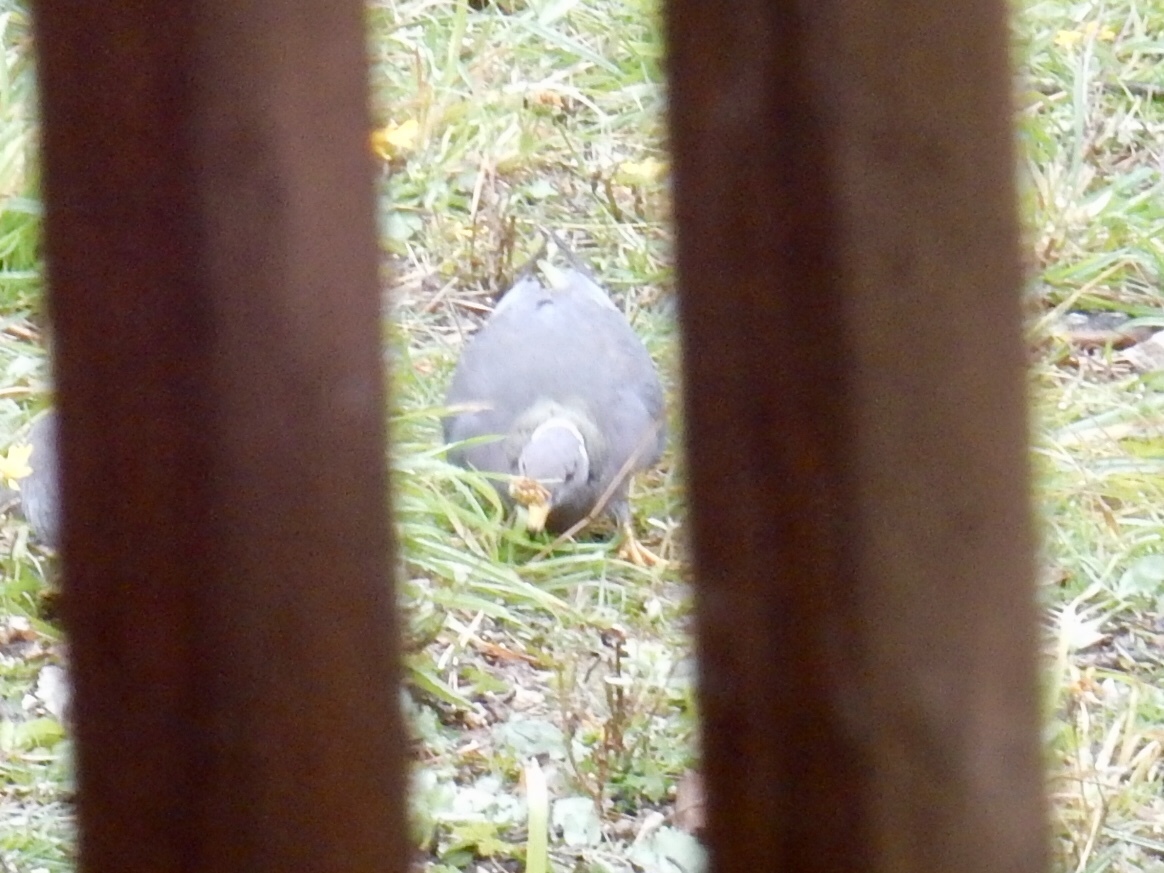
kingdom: Animalia
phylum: Chordata
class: Aves
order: Columbiformes
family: Columbidae
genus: Patagioenas
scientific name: Patagioenas fasciata
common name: Band-tailed pigeon
